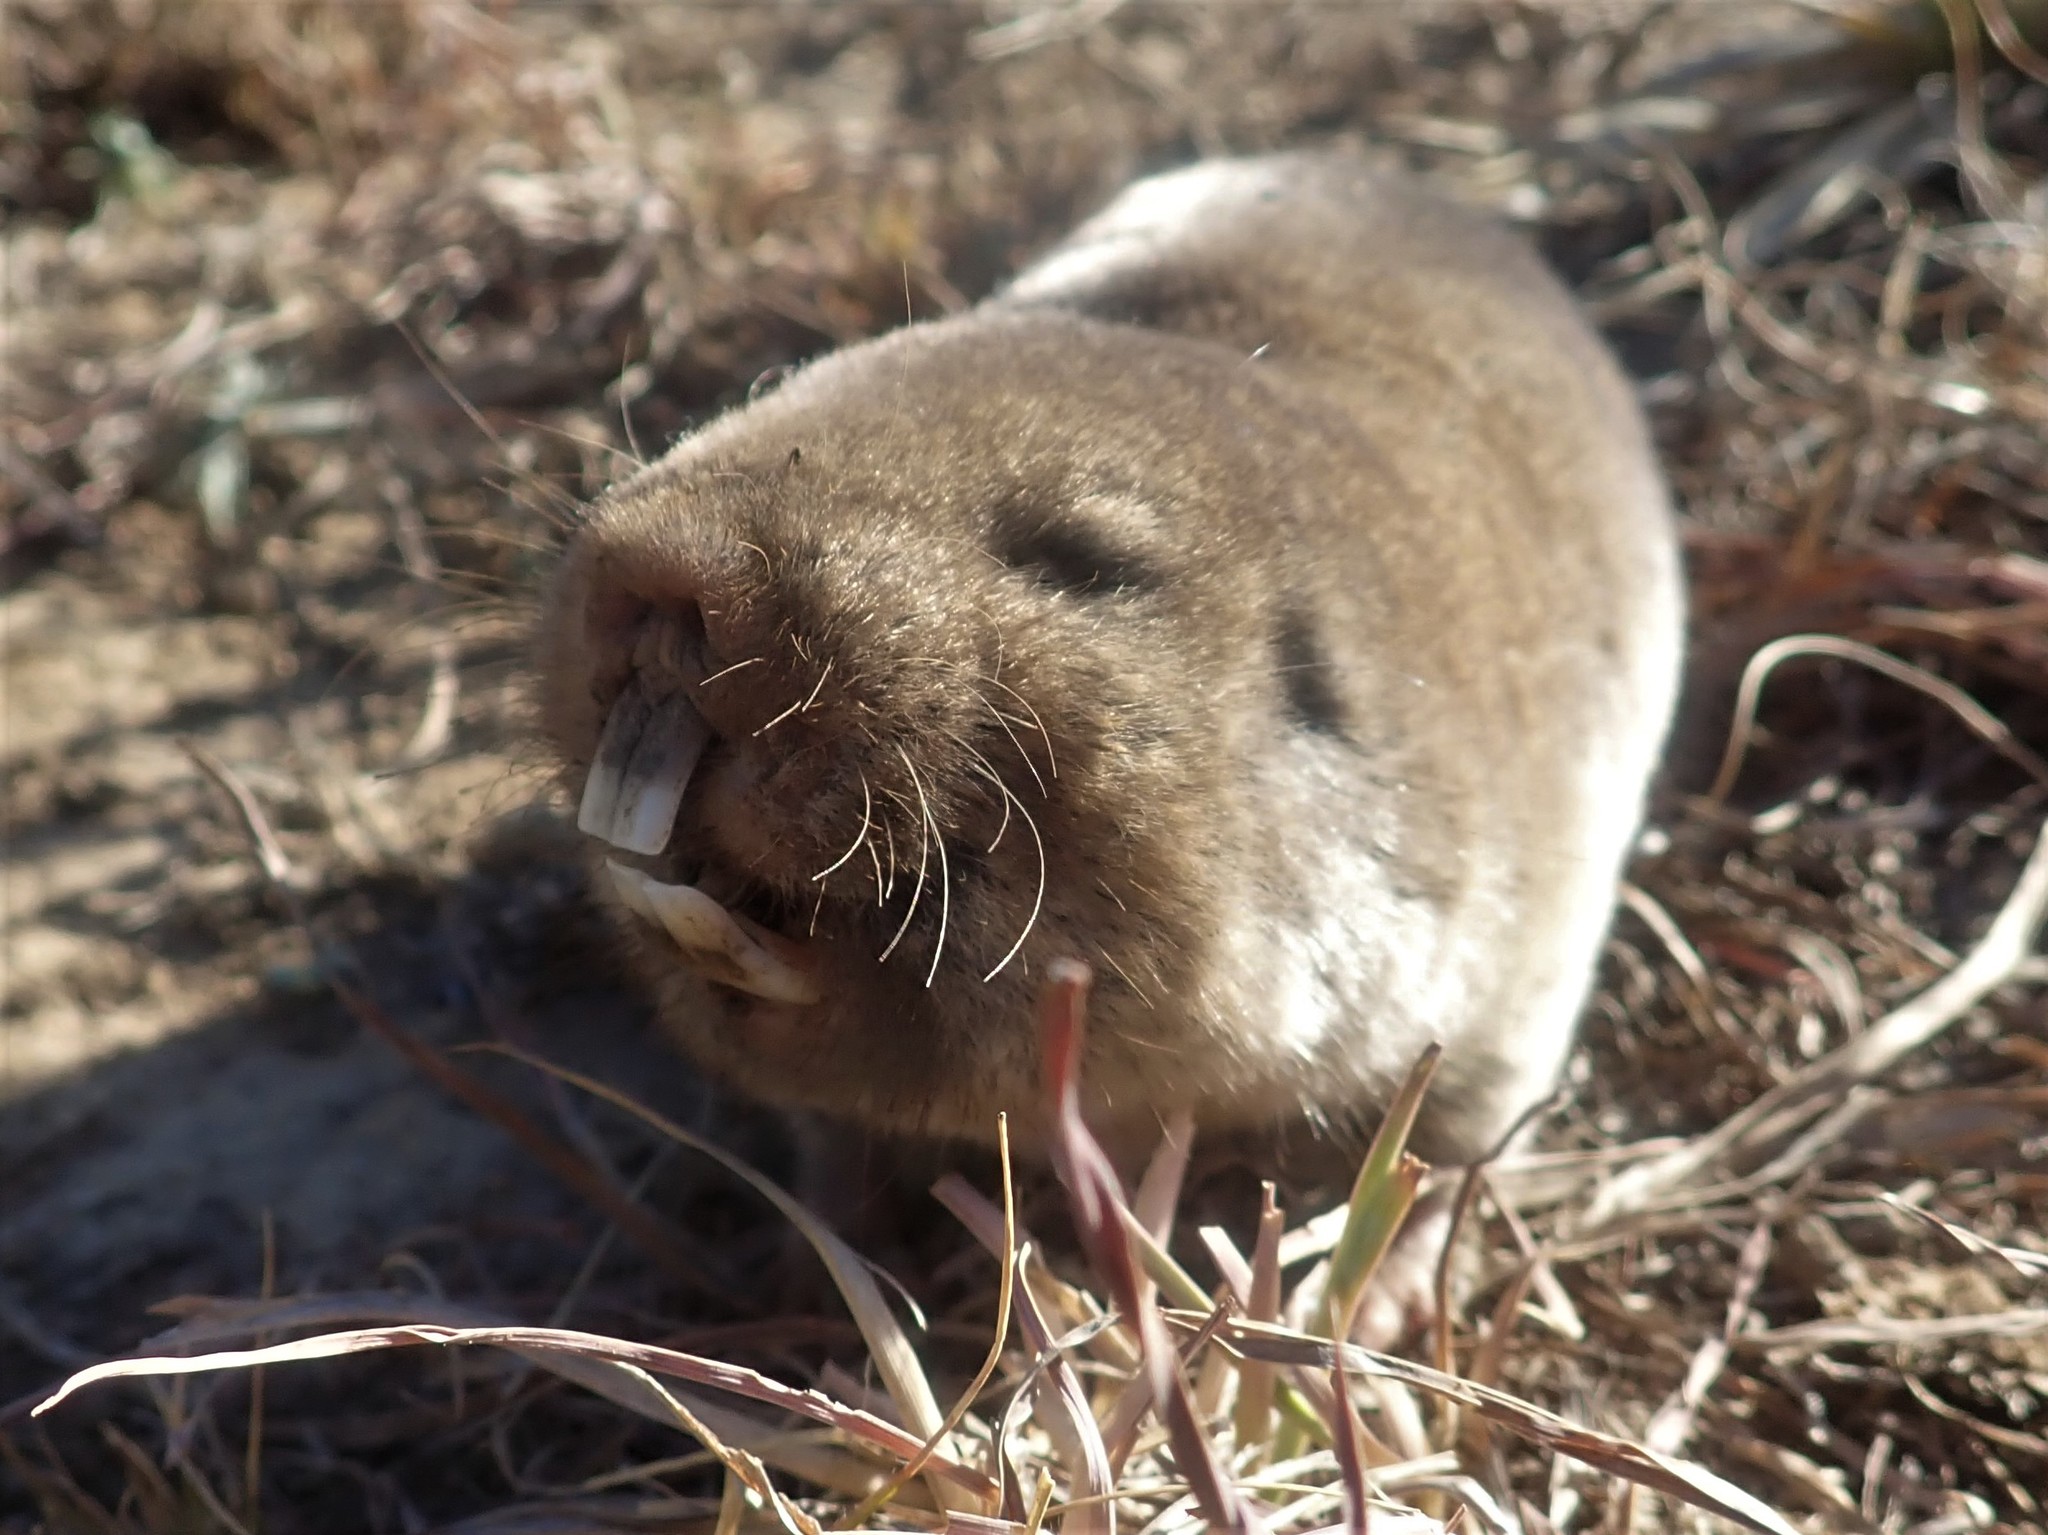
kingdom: Animalia
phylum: Chordata
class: Mammalia
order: Rodentia
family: Bathyergidae
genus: Cryptomys
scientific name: Cryptomys hottentotus
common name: Southern african mole-rat
